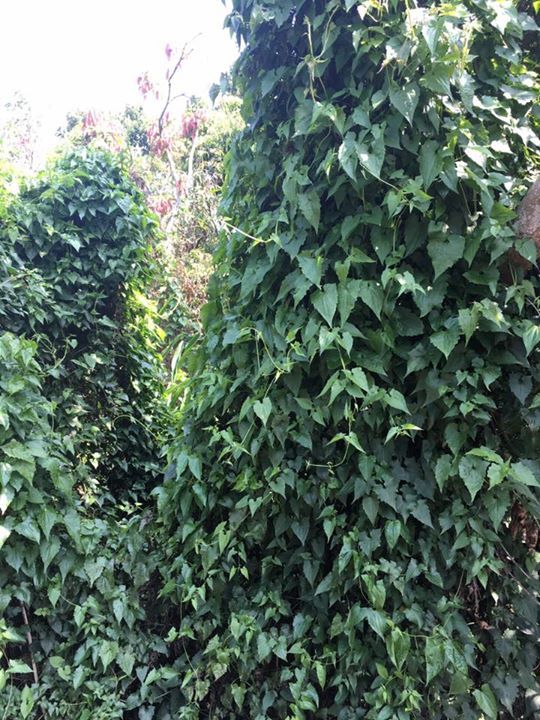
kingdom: Plantae
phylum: Tracheophyta
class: Magnoliopsida
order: Asterales
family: Asteraceae
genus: Mikania
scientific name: Mikania micrantha
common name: Mile-a-minute
